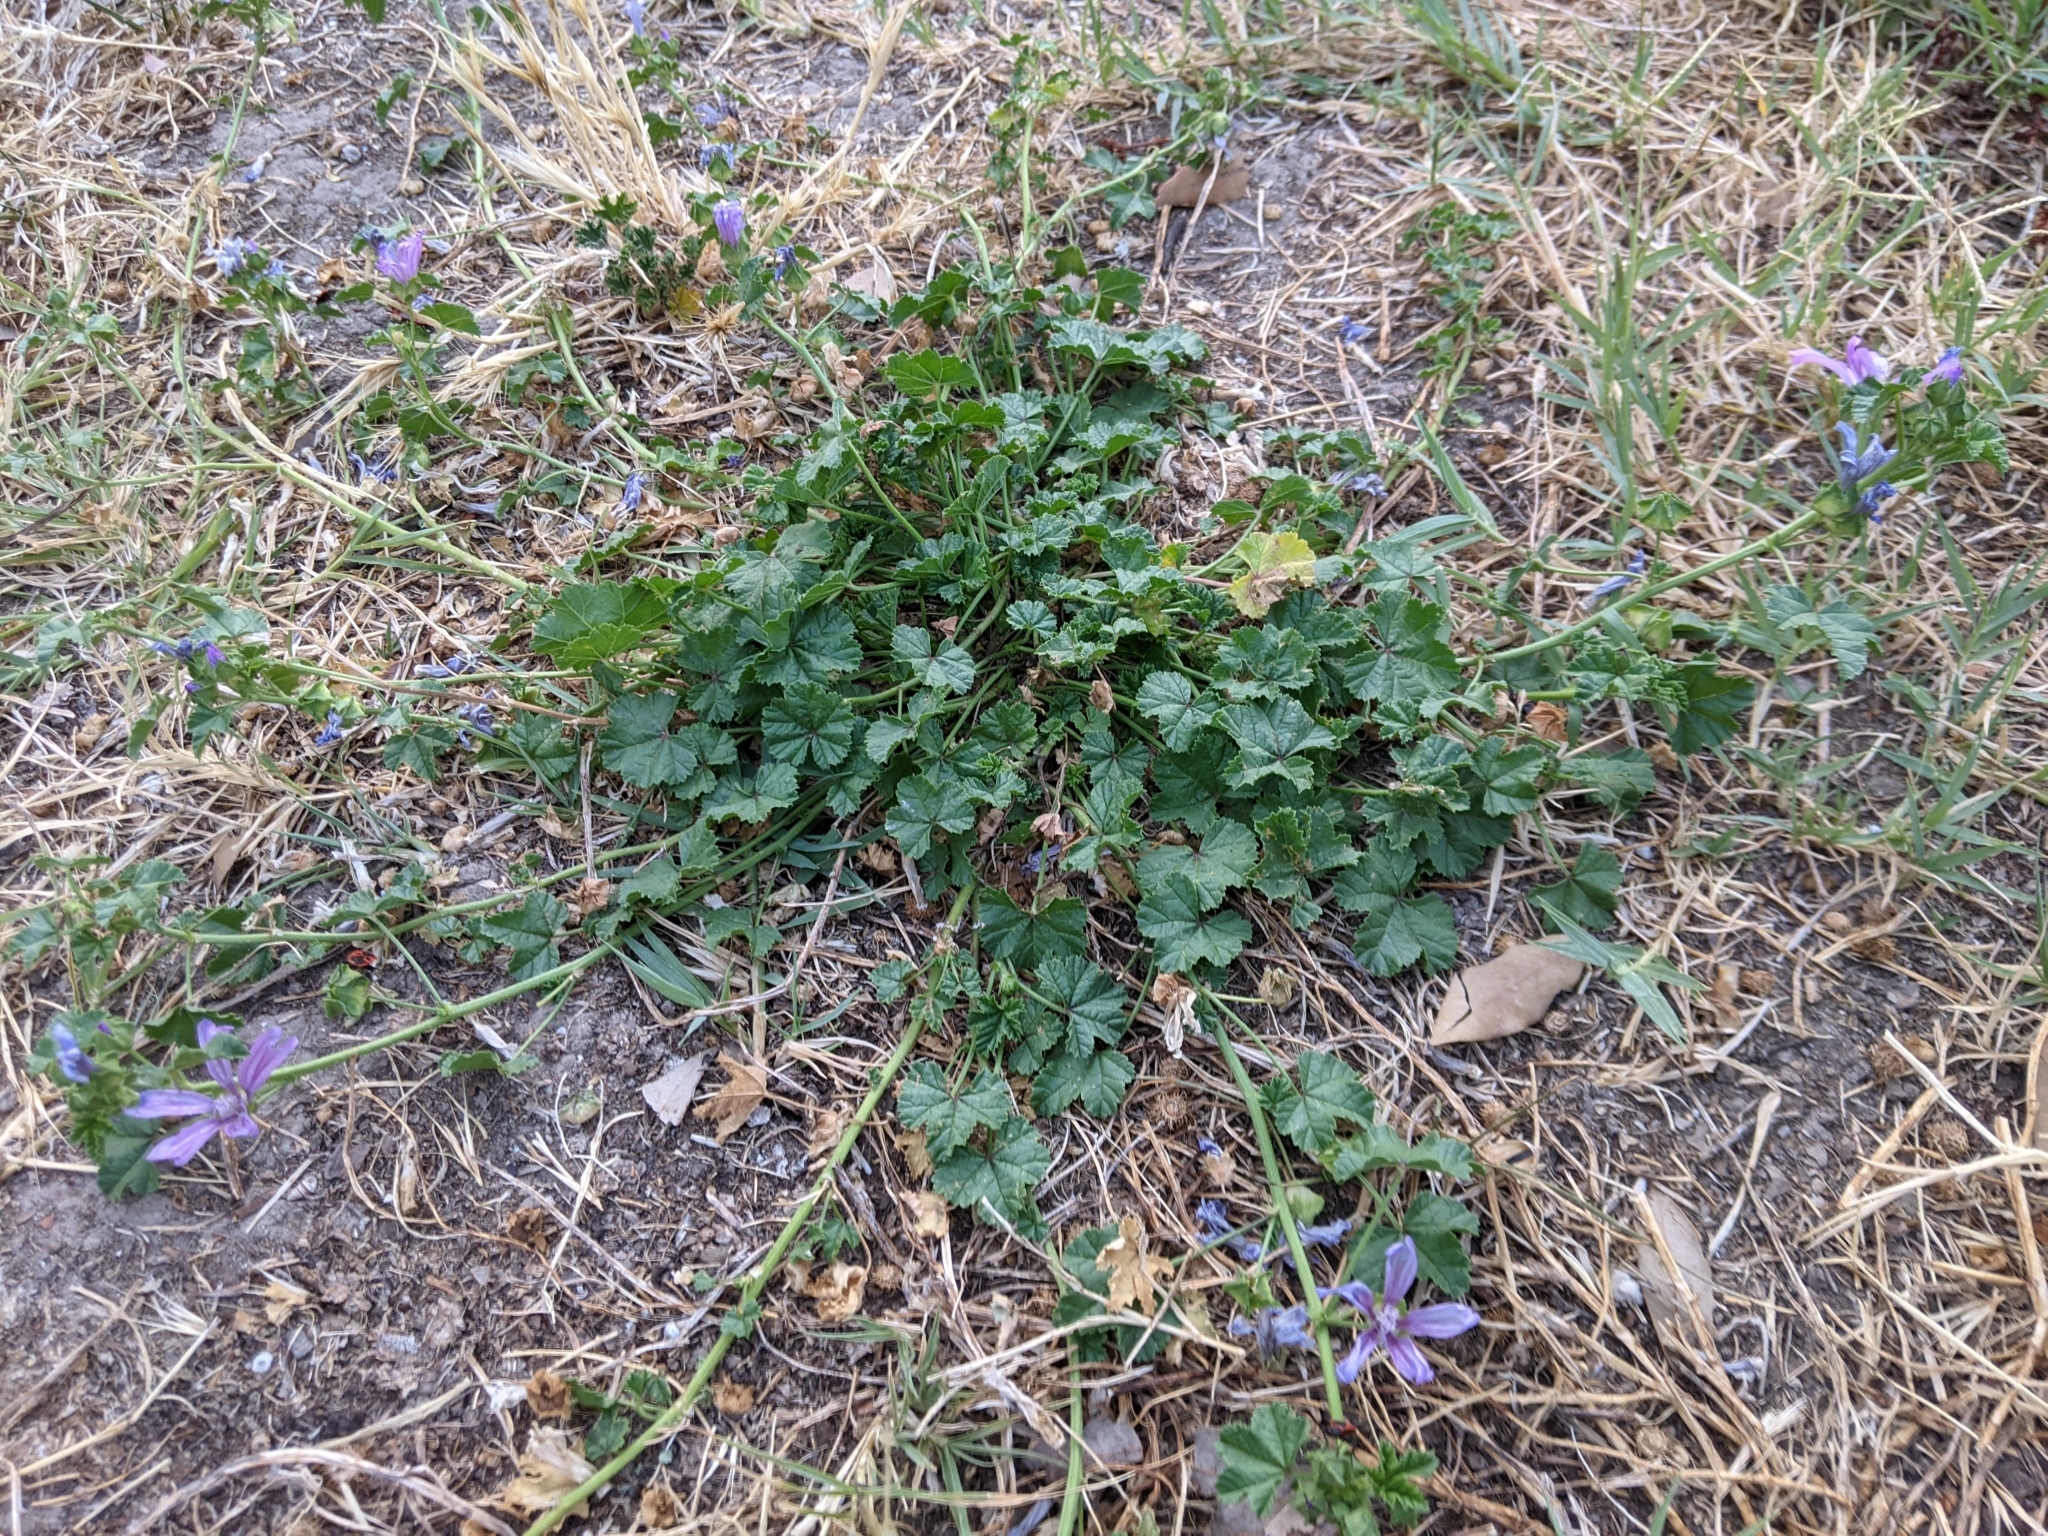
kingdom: Plantae
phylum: Tracheophyta
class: Magnoliopsida
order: Malvales
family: Malvaceae
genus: Malva
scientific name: Malva sylvestris
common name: Common mallow
